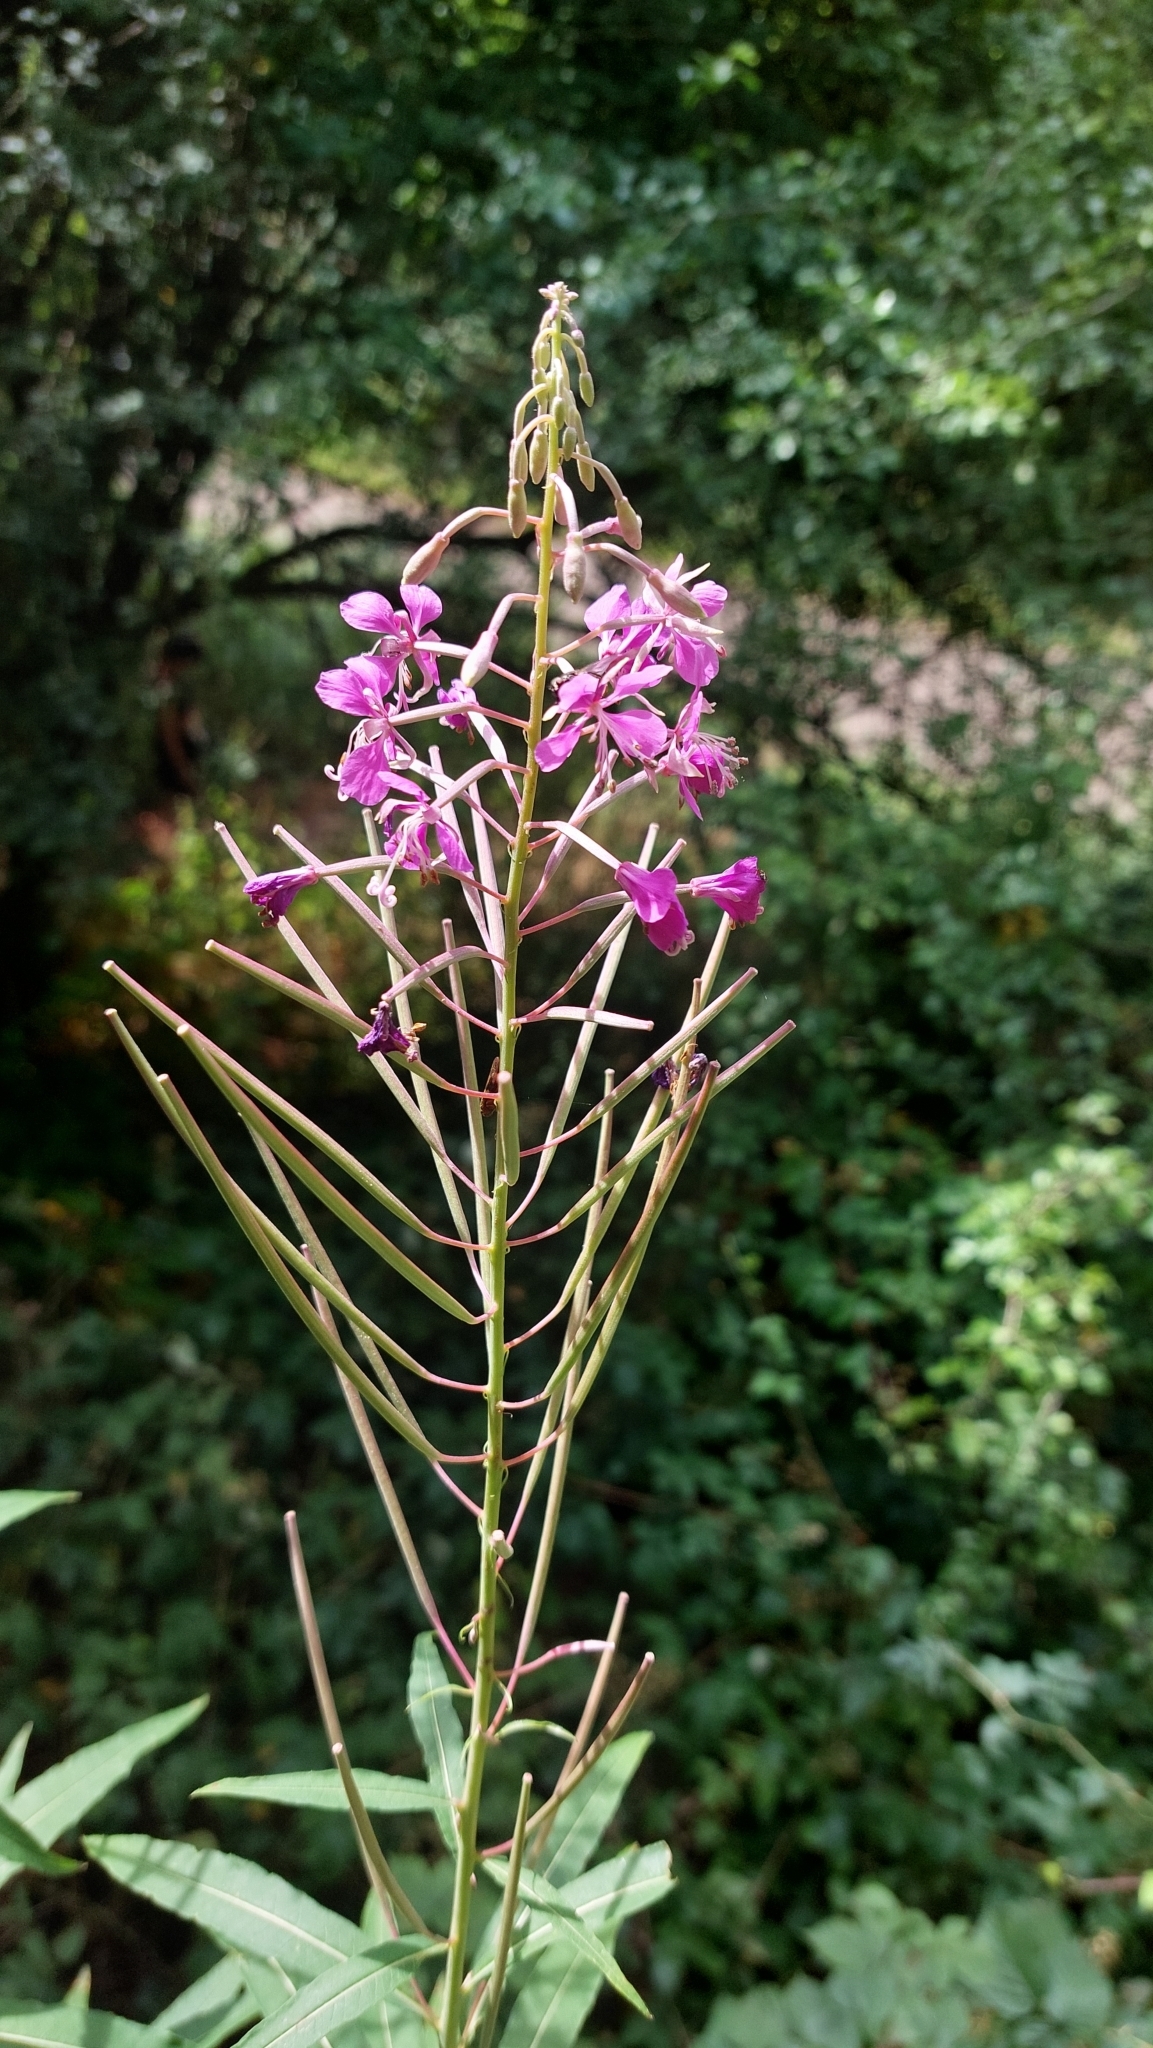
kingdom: Plantae
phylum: Tracheophyta
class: Magnoliopsida
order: Myrtales
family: Onagraceae
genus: Chamaenerion
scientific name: Chamaenerion angustifolium
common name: Fireweed
